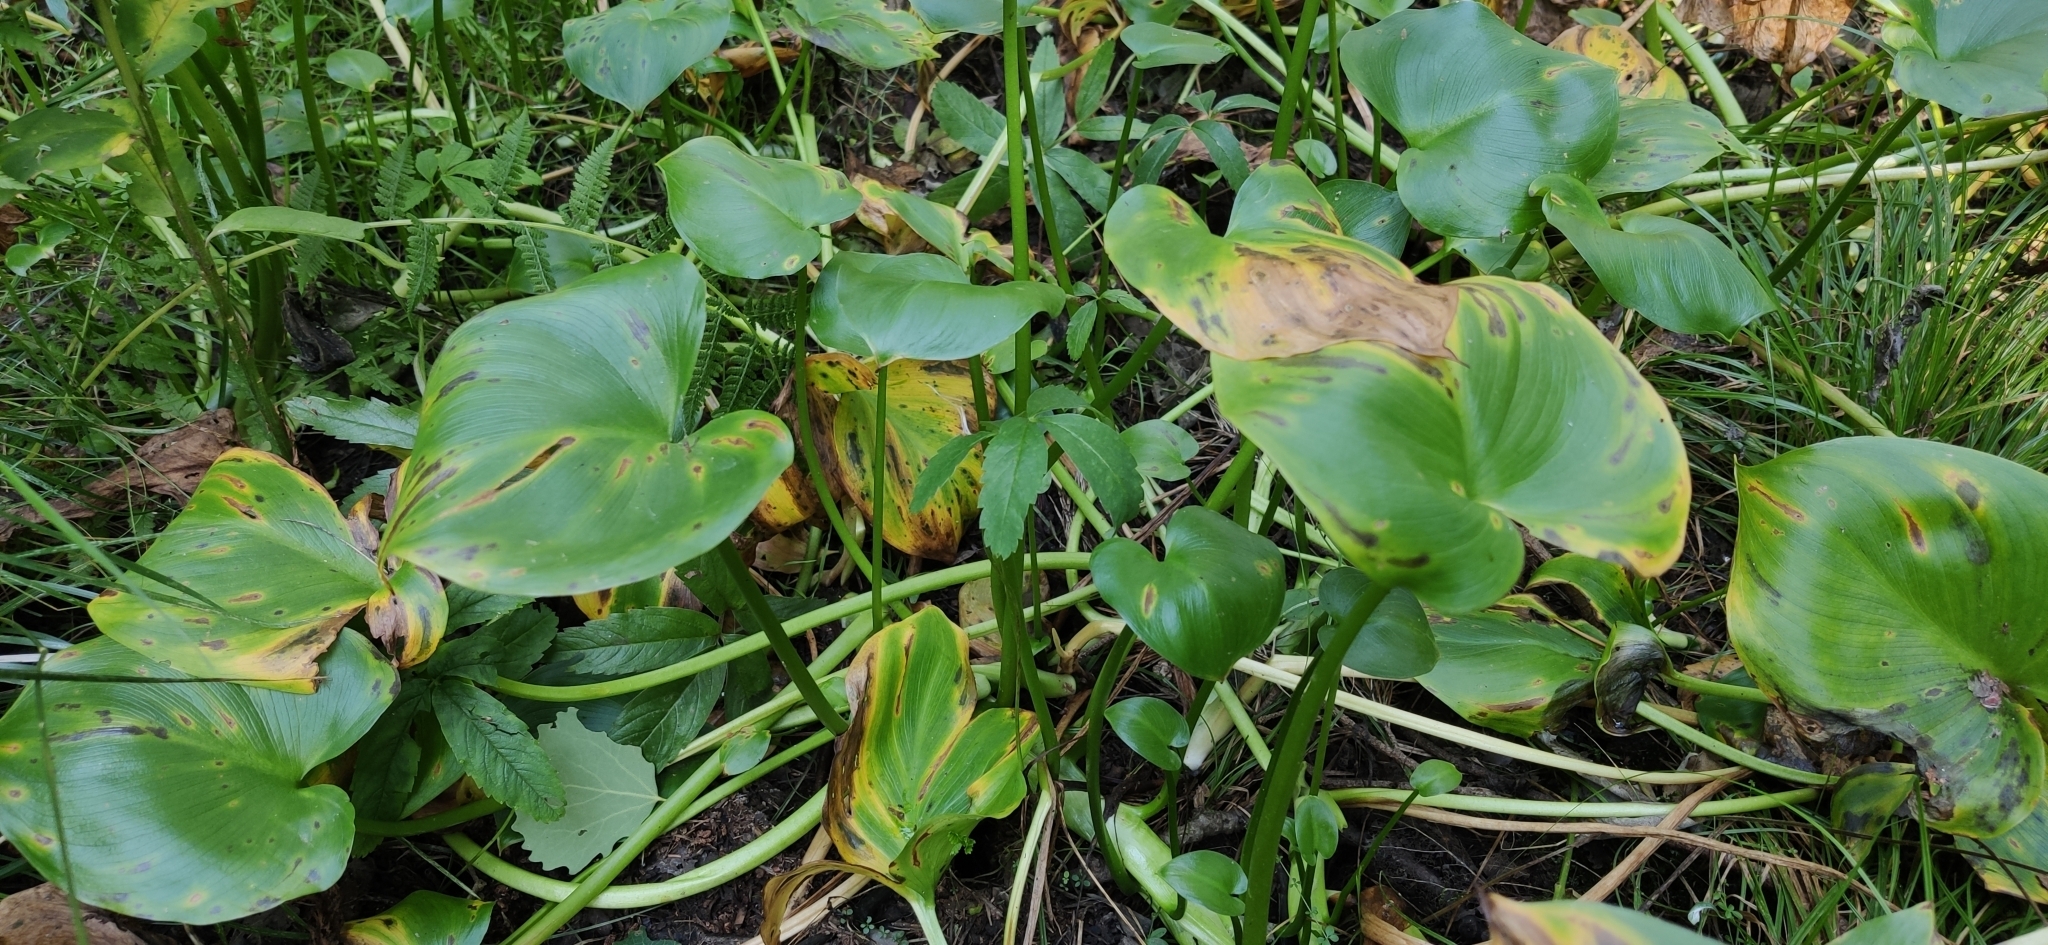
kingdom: Plantae
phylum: Tracheophyta
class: Liliopsida
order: Alismatales
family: Araceae
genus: Calla
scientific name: Calla palustris
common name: Bog arum
